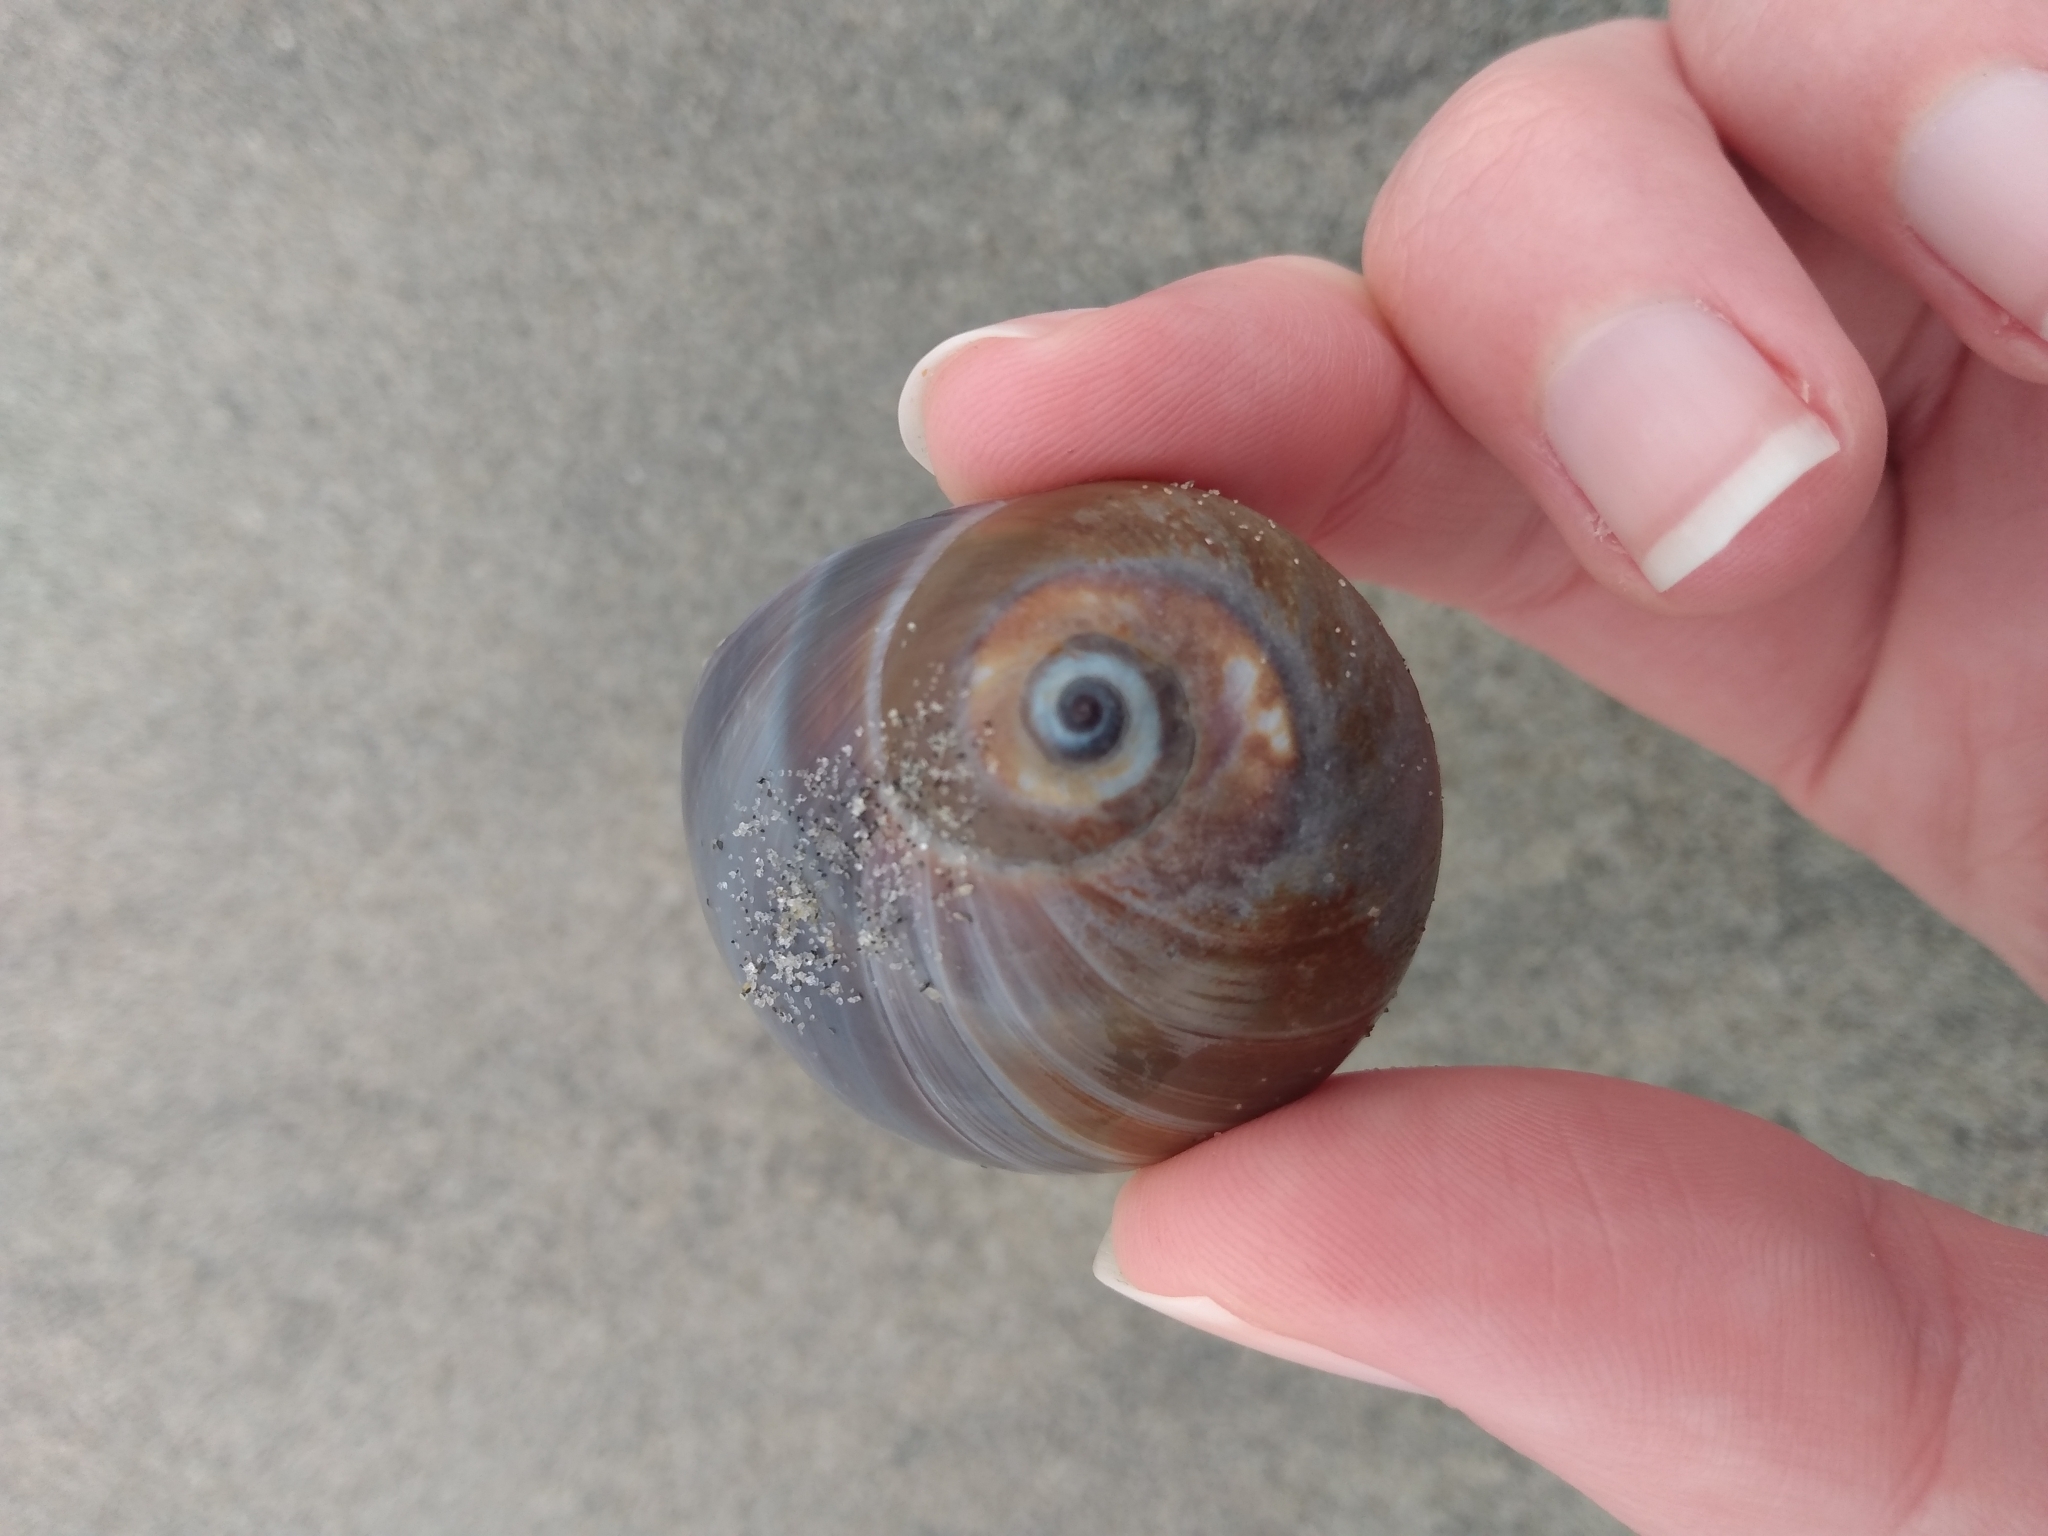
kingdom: Animalia
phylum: Mollusca
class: Gastropoda
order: Littorinimorpha
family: Naticidae
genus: Glossaulax
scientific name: Glossaulax reclusiana
